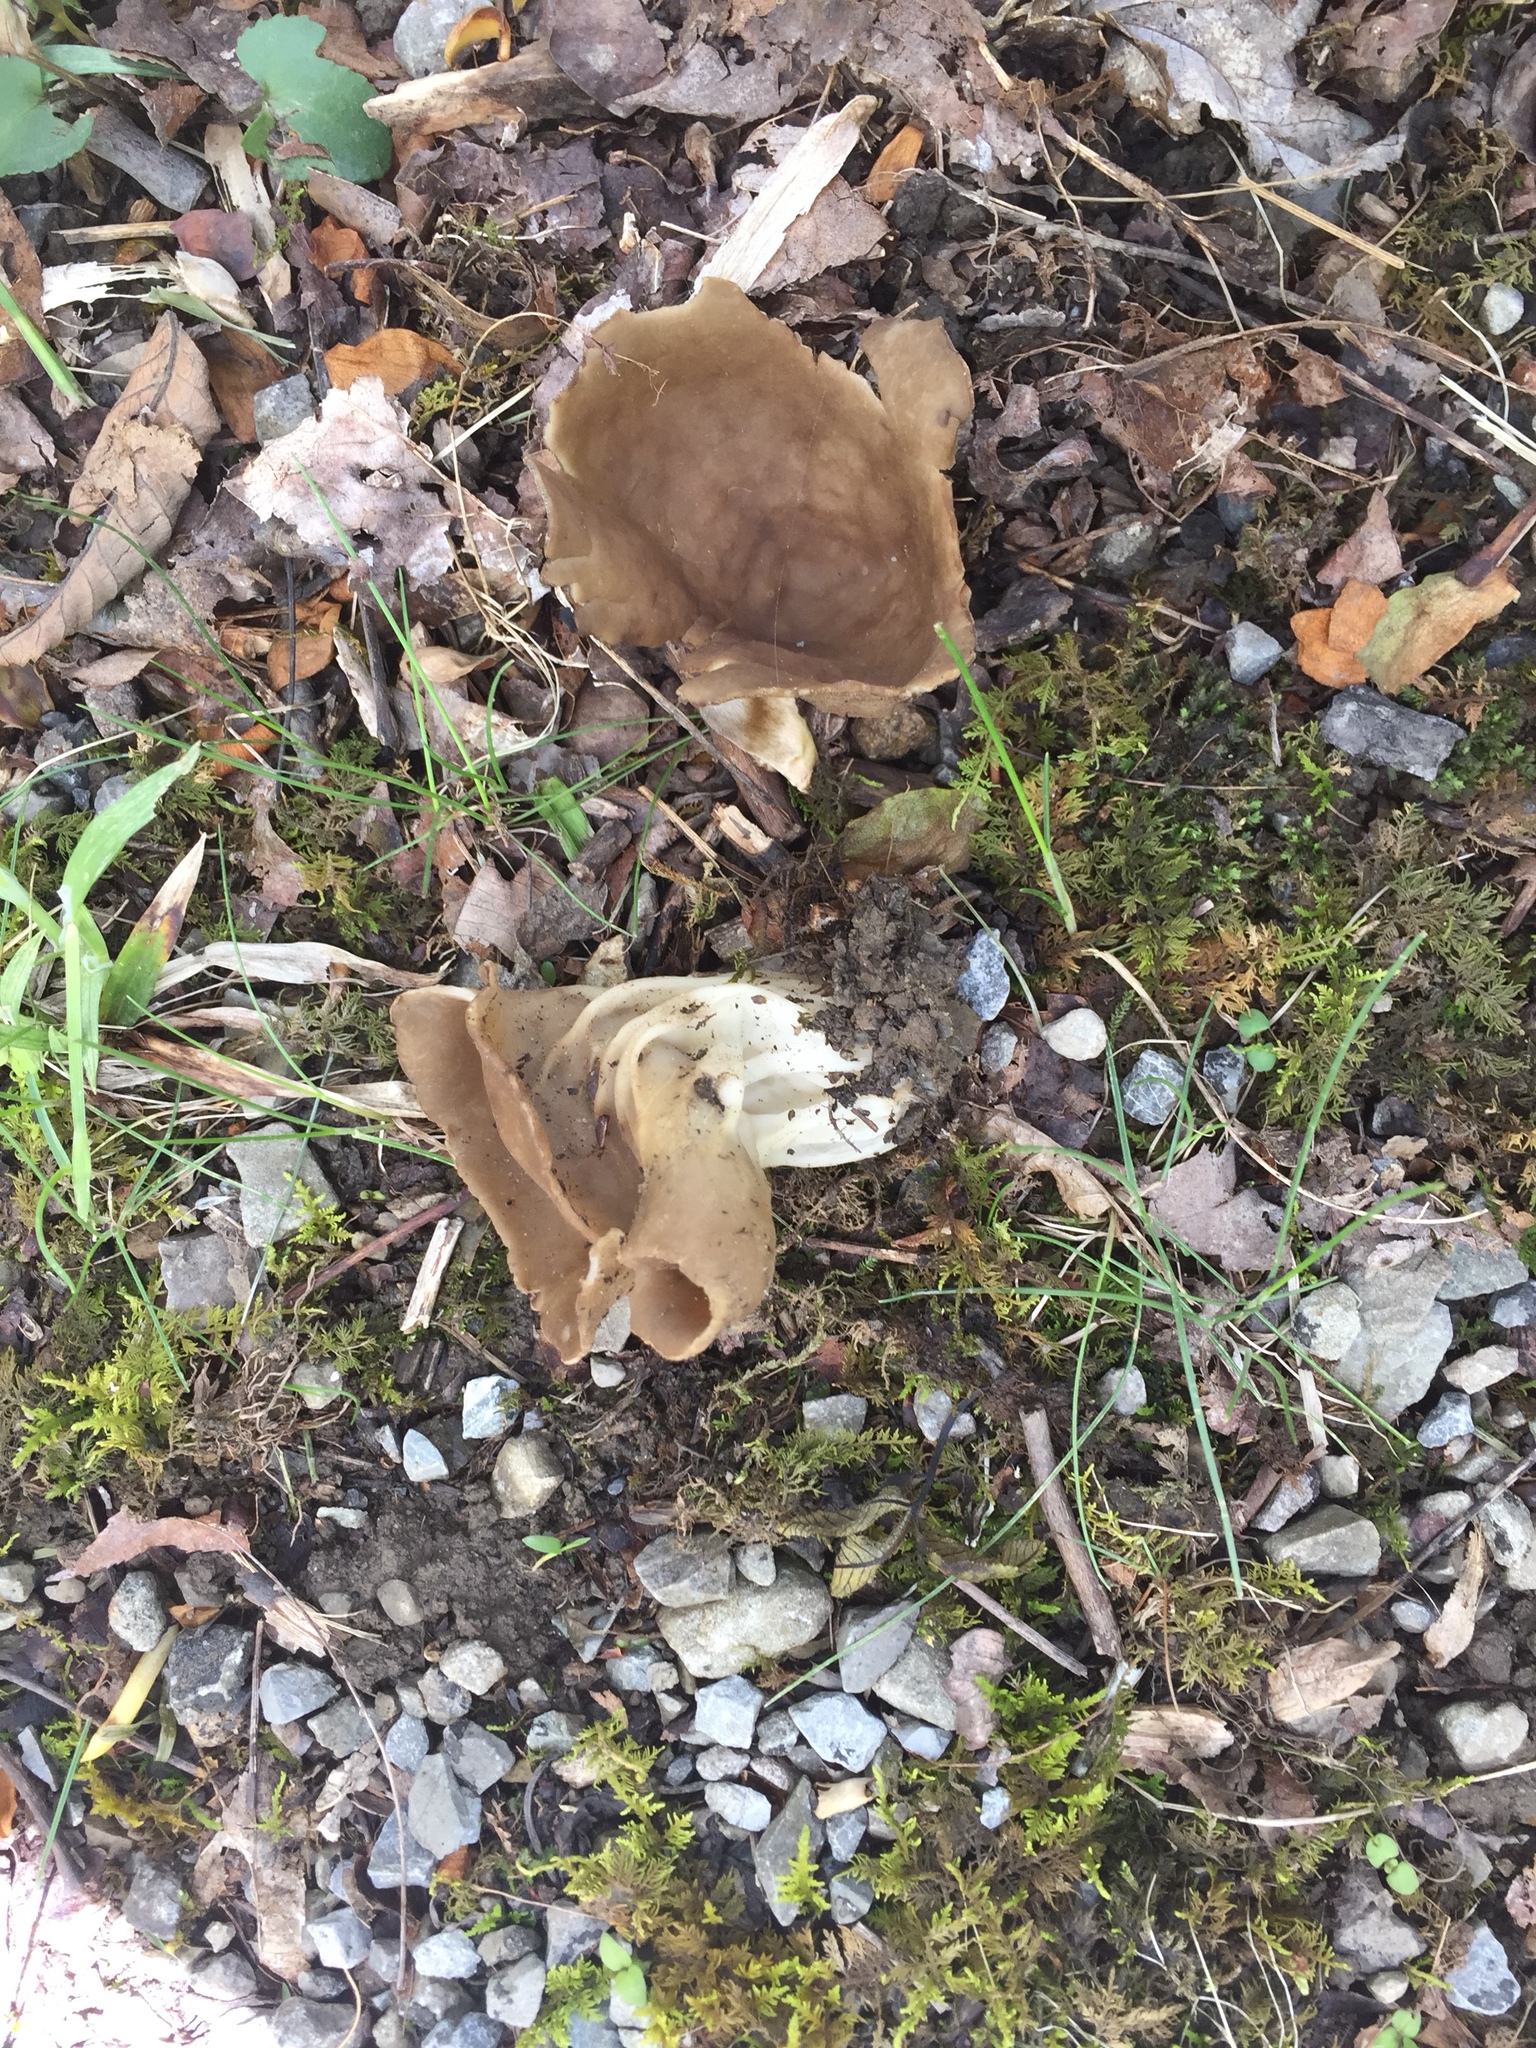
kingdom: Fungi
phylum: Ascomycota
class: Pezizomycetes
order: Pezizales
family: Helvellaceae
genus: Helvella
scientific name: Helvella acetabulum
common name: Vinegar cup
